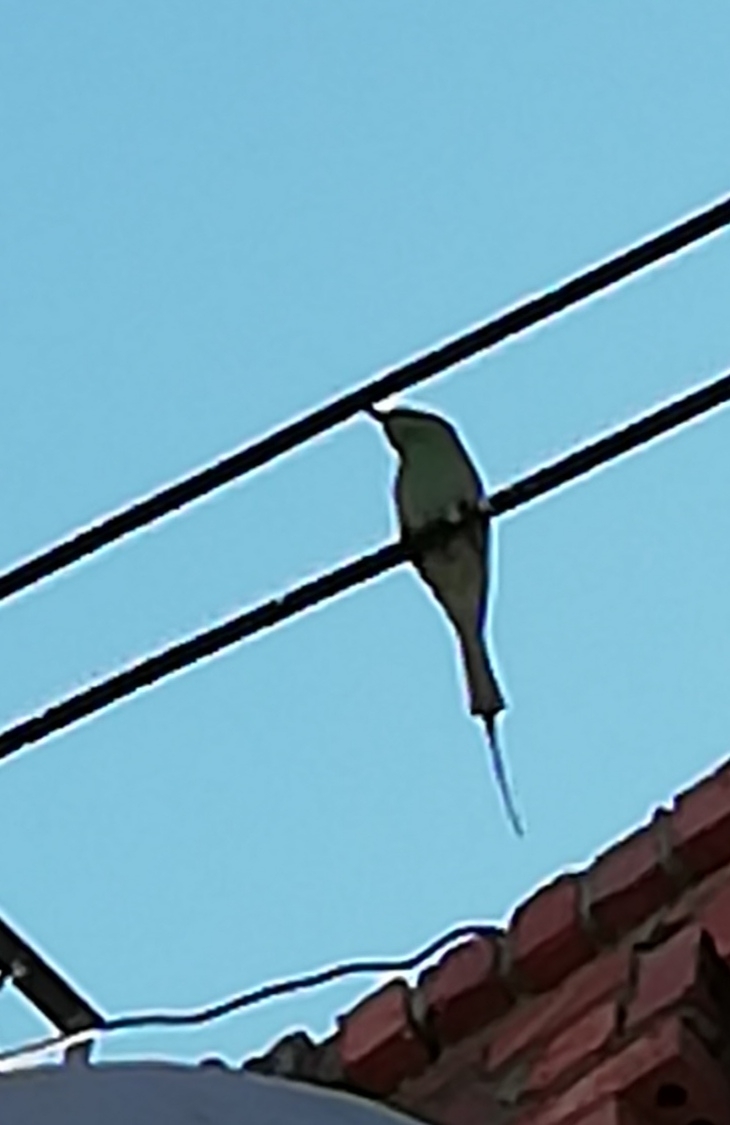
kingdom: Animalia
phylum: Chordata
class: Aves
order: Coraciiformes
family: Meropidae
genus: Merops
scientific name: Merops viridissimus
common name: African green bee-eater
